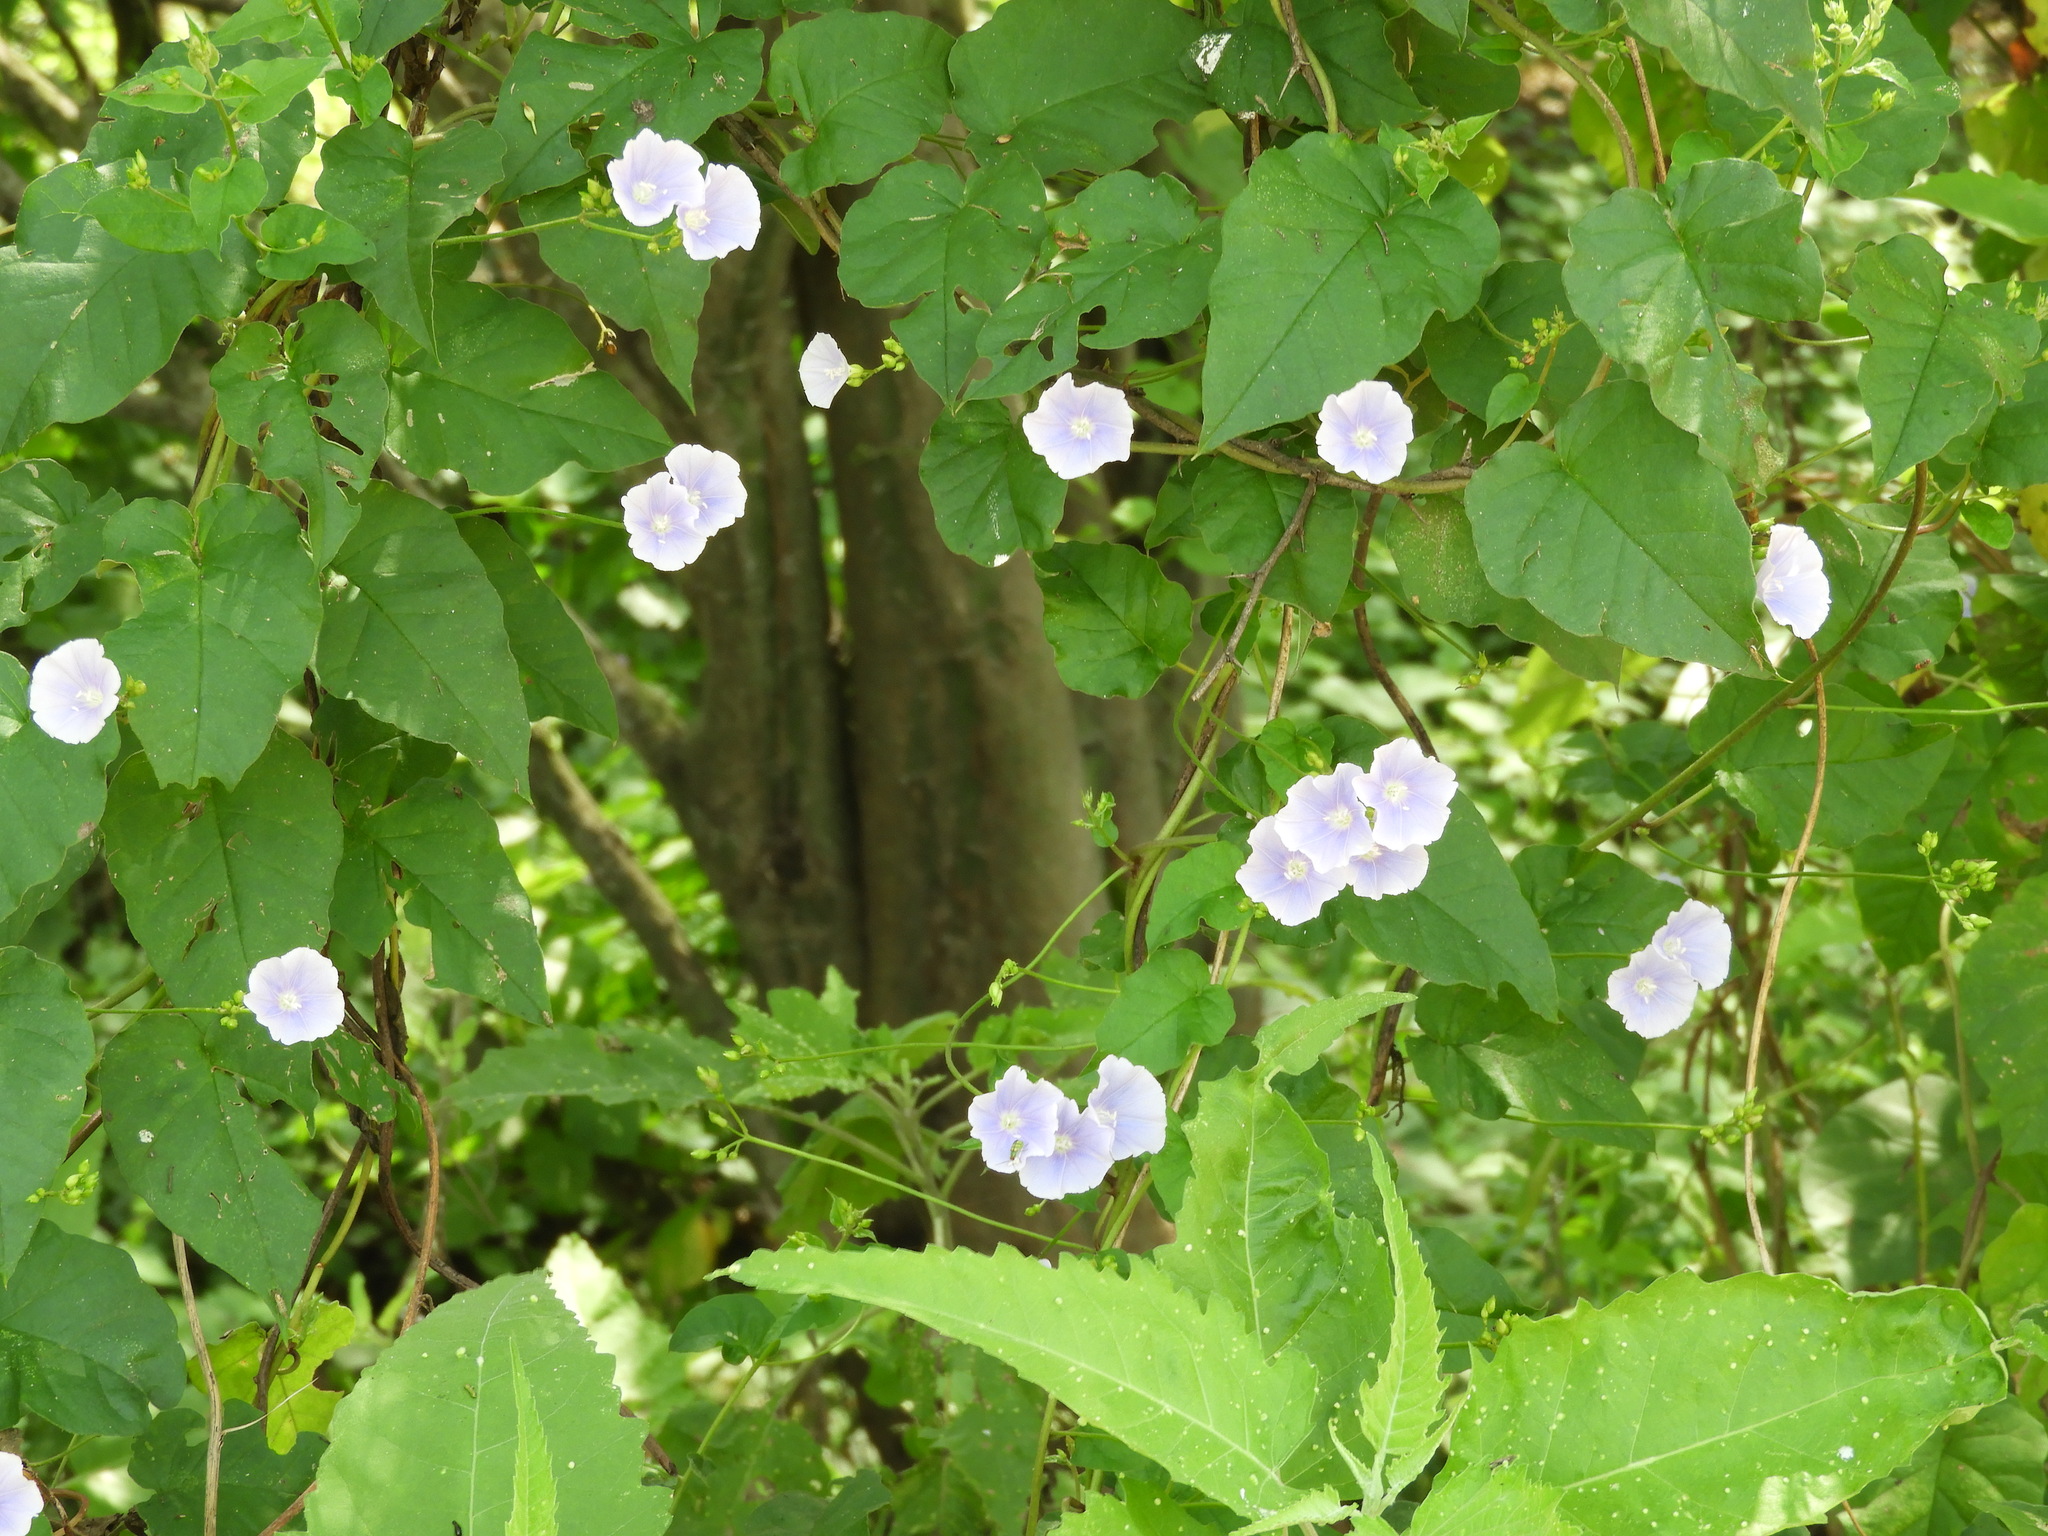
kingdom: Plantae
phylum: Tracheophyta
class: Magnoliopsida
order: Solanales
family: Convolvulaceae
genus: Jacquemontia
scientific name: Jacquemontia
